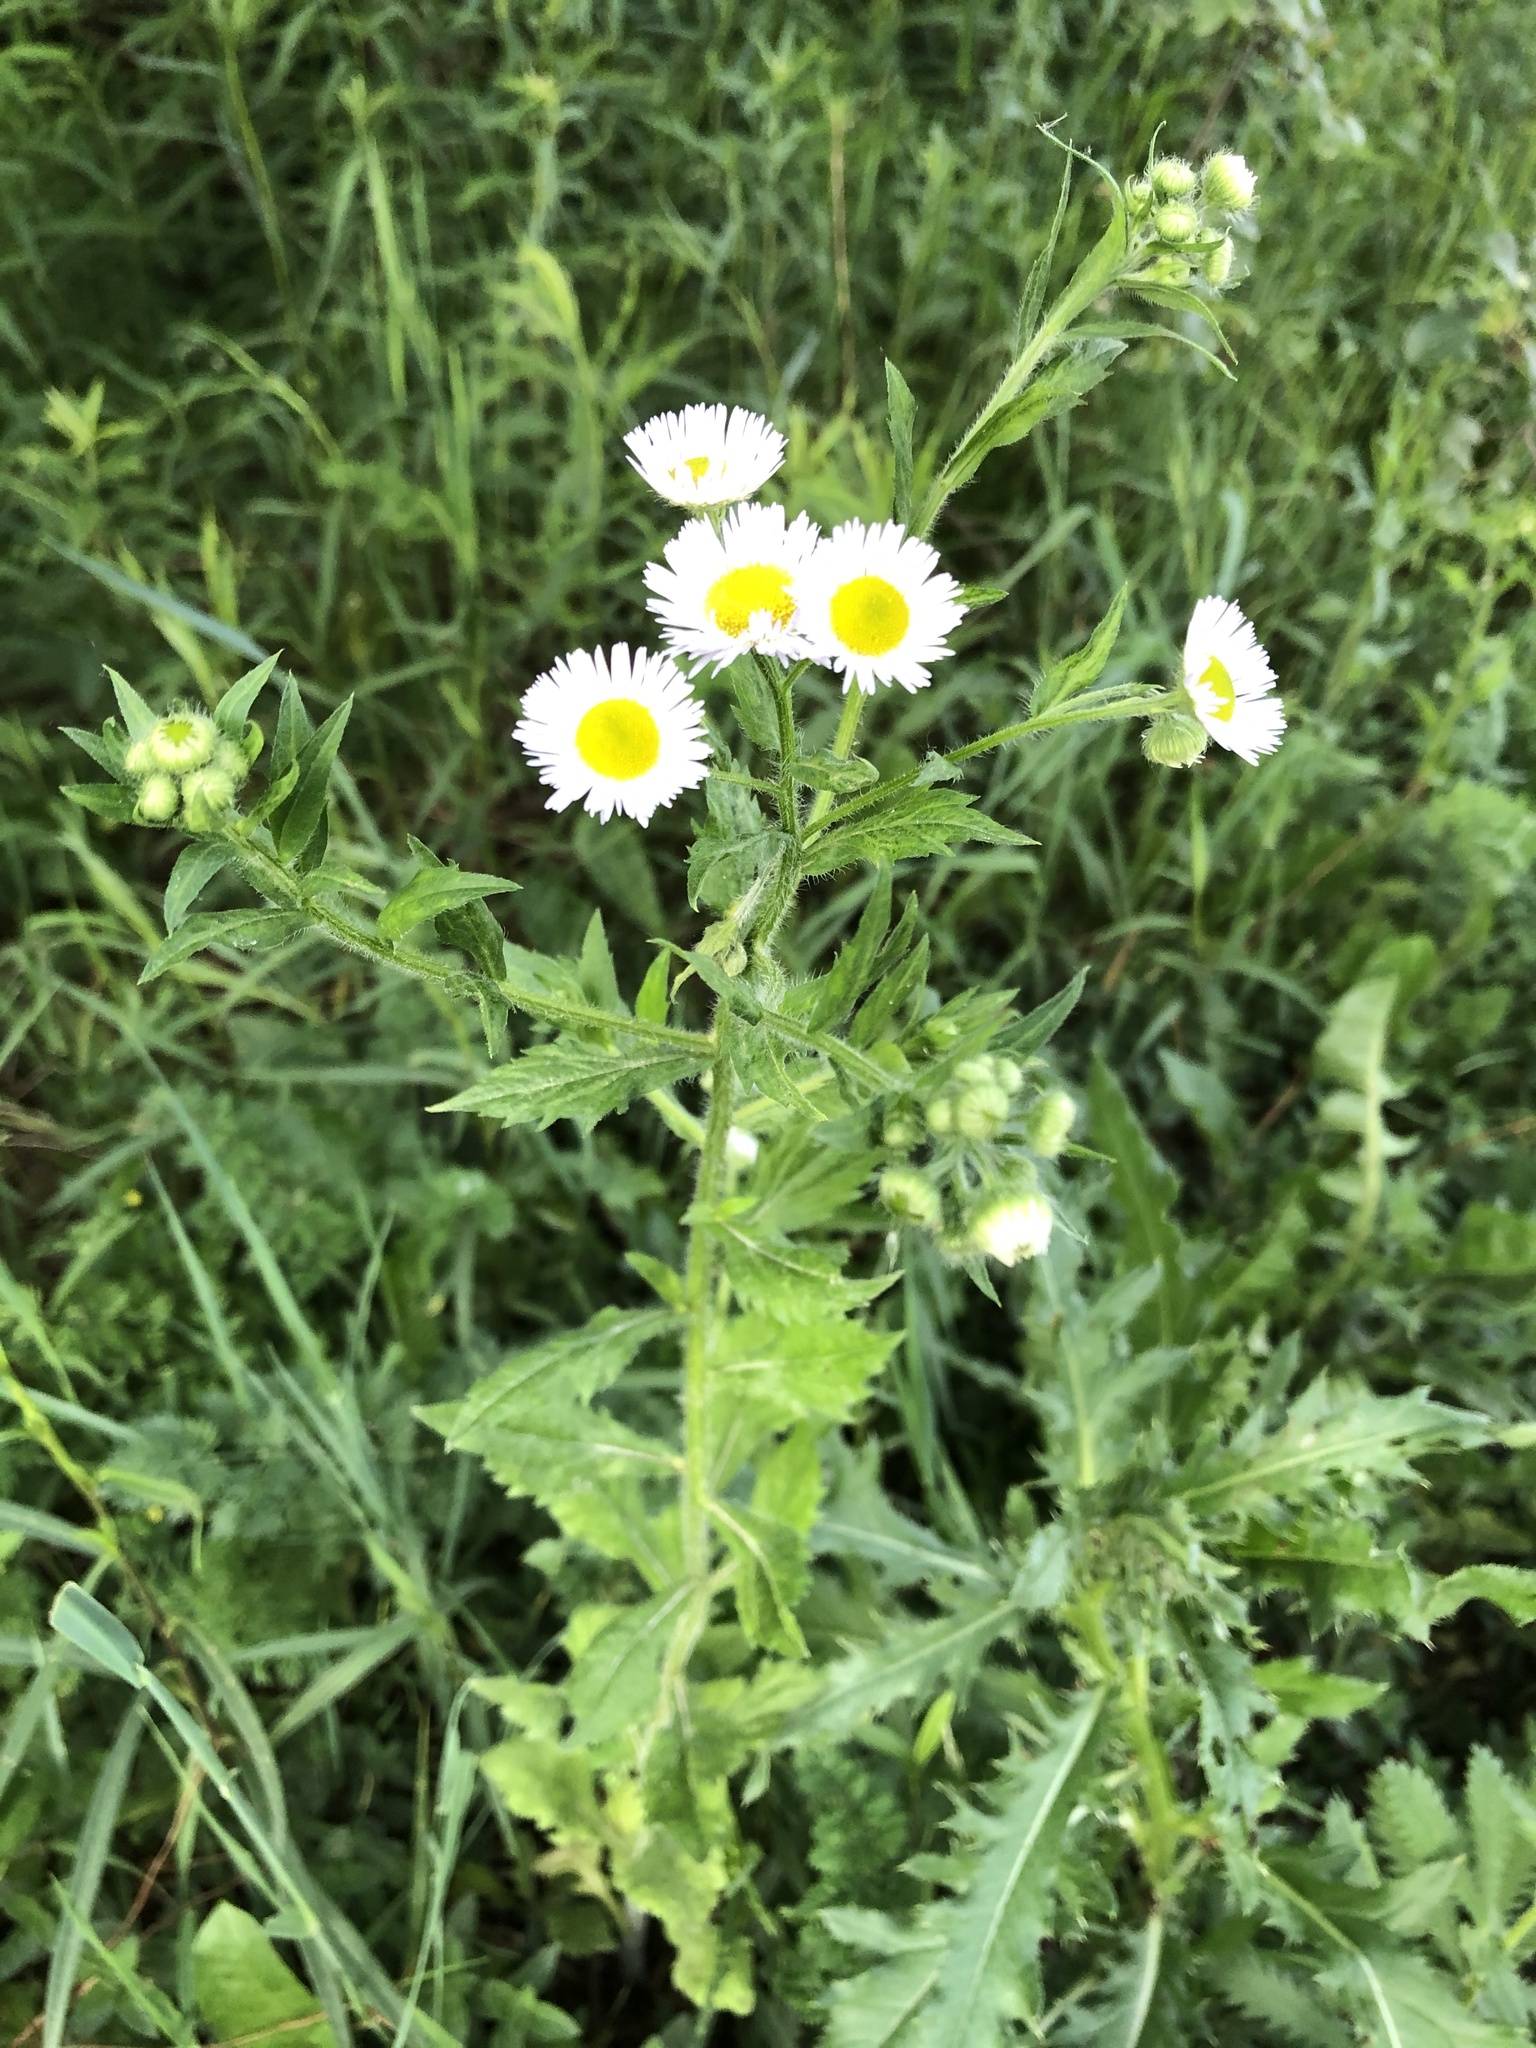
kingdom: Plantae
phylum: Tracheophyta
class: Magnoliopsida
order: Asterales
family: Asteraceae
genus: Erigeron
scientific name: Erigeron annuus
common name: Tall fleabane
